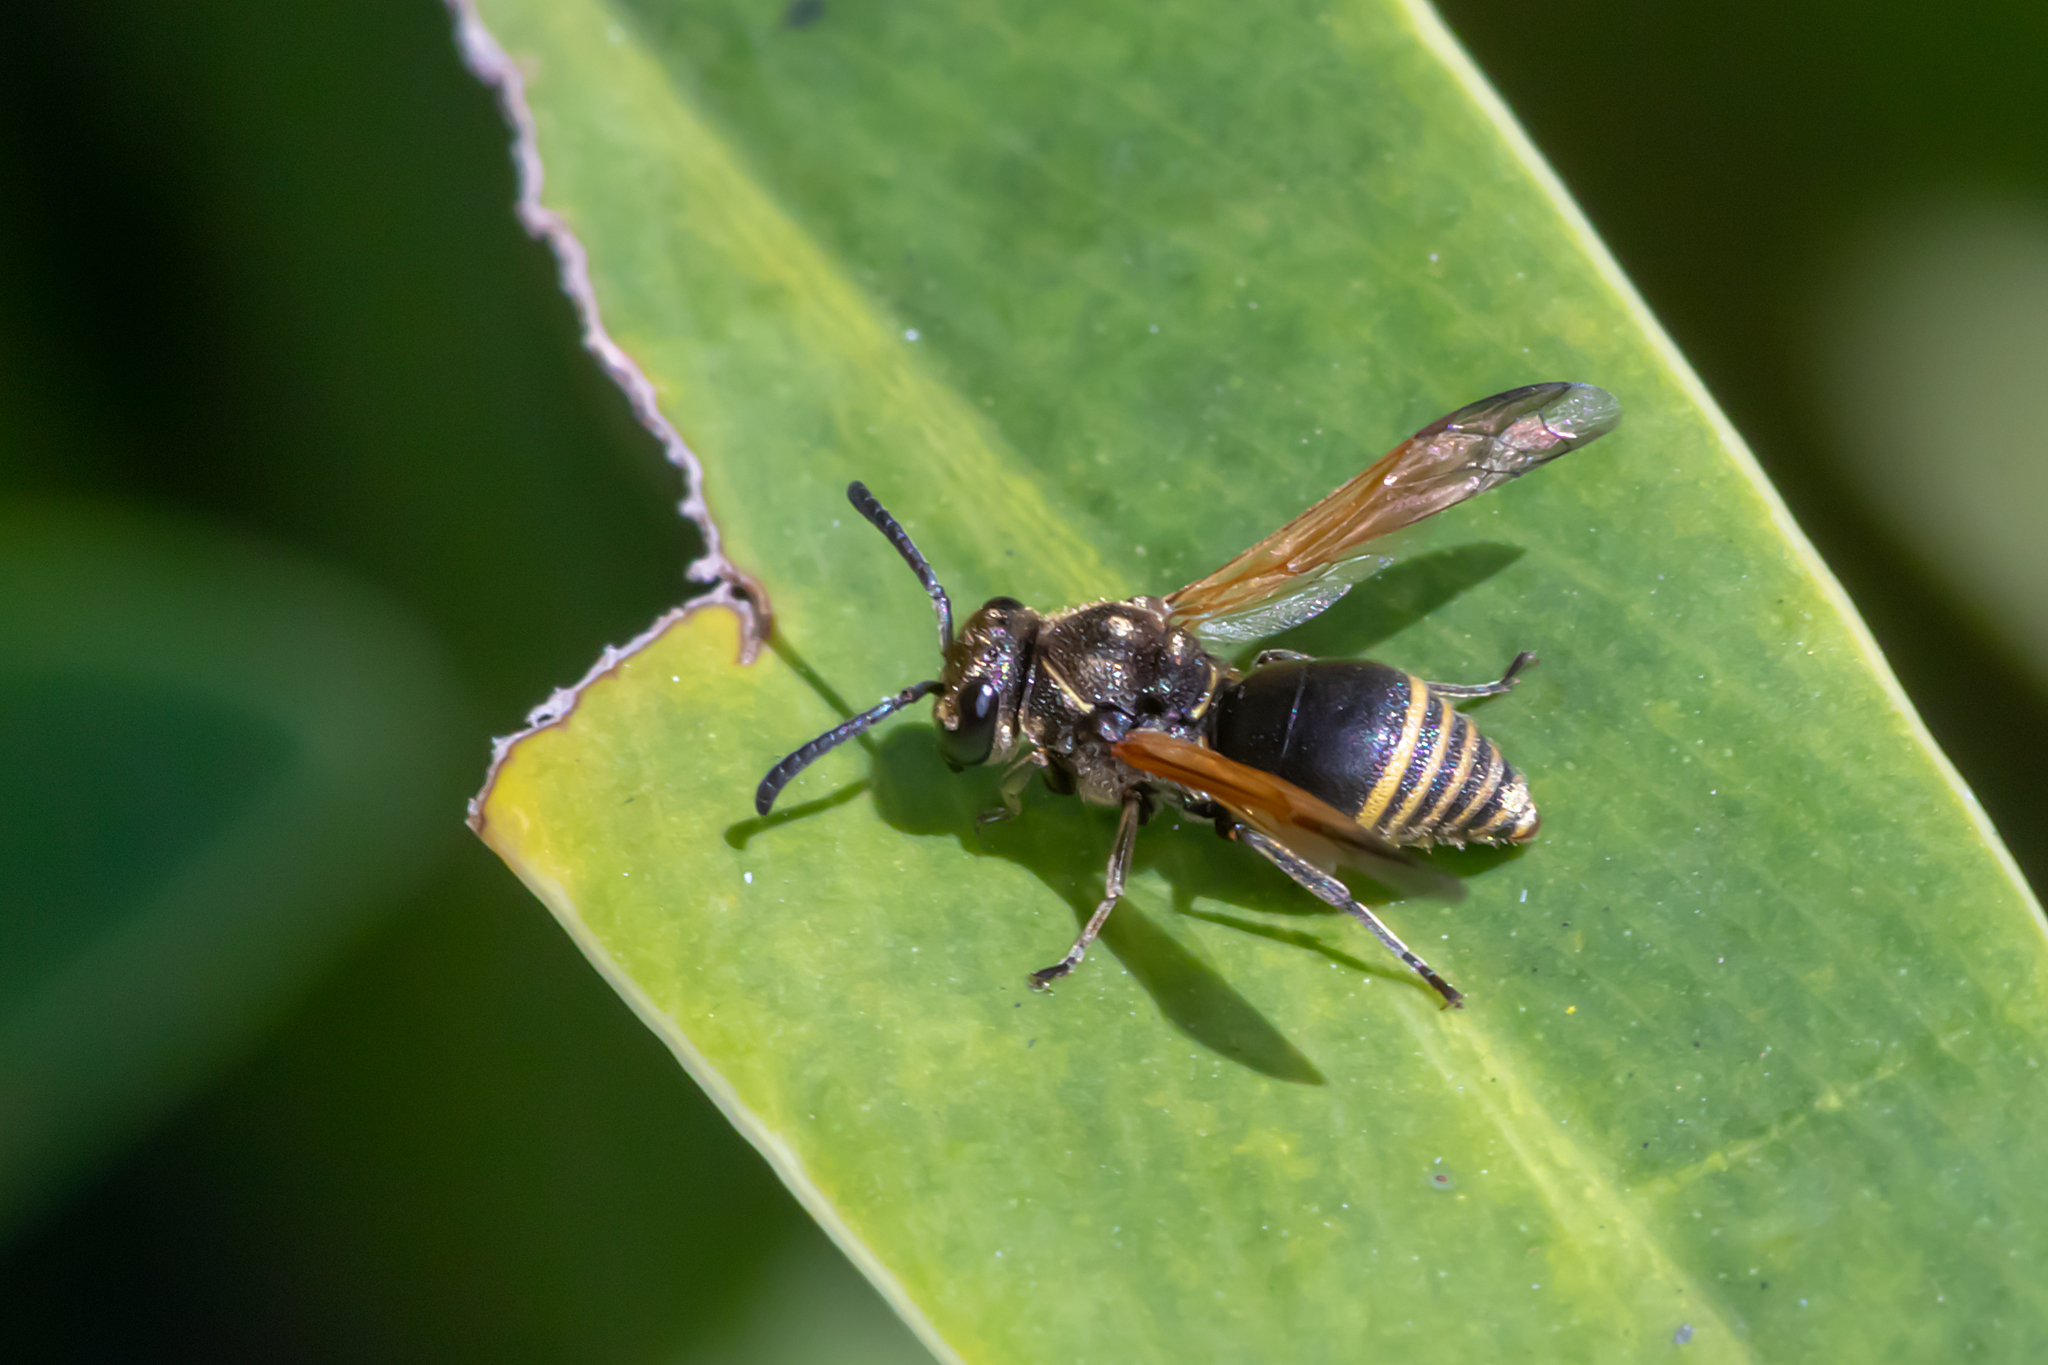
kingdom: Animalia
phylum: Arthropoda
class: Insecta
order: Hymenoptera
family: Eumenidae
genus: Pachodynerus
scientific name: Pachodynerus nasidens
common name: Key hole wasp
